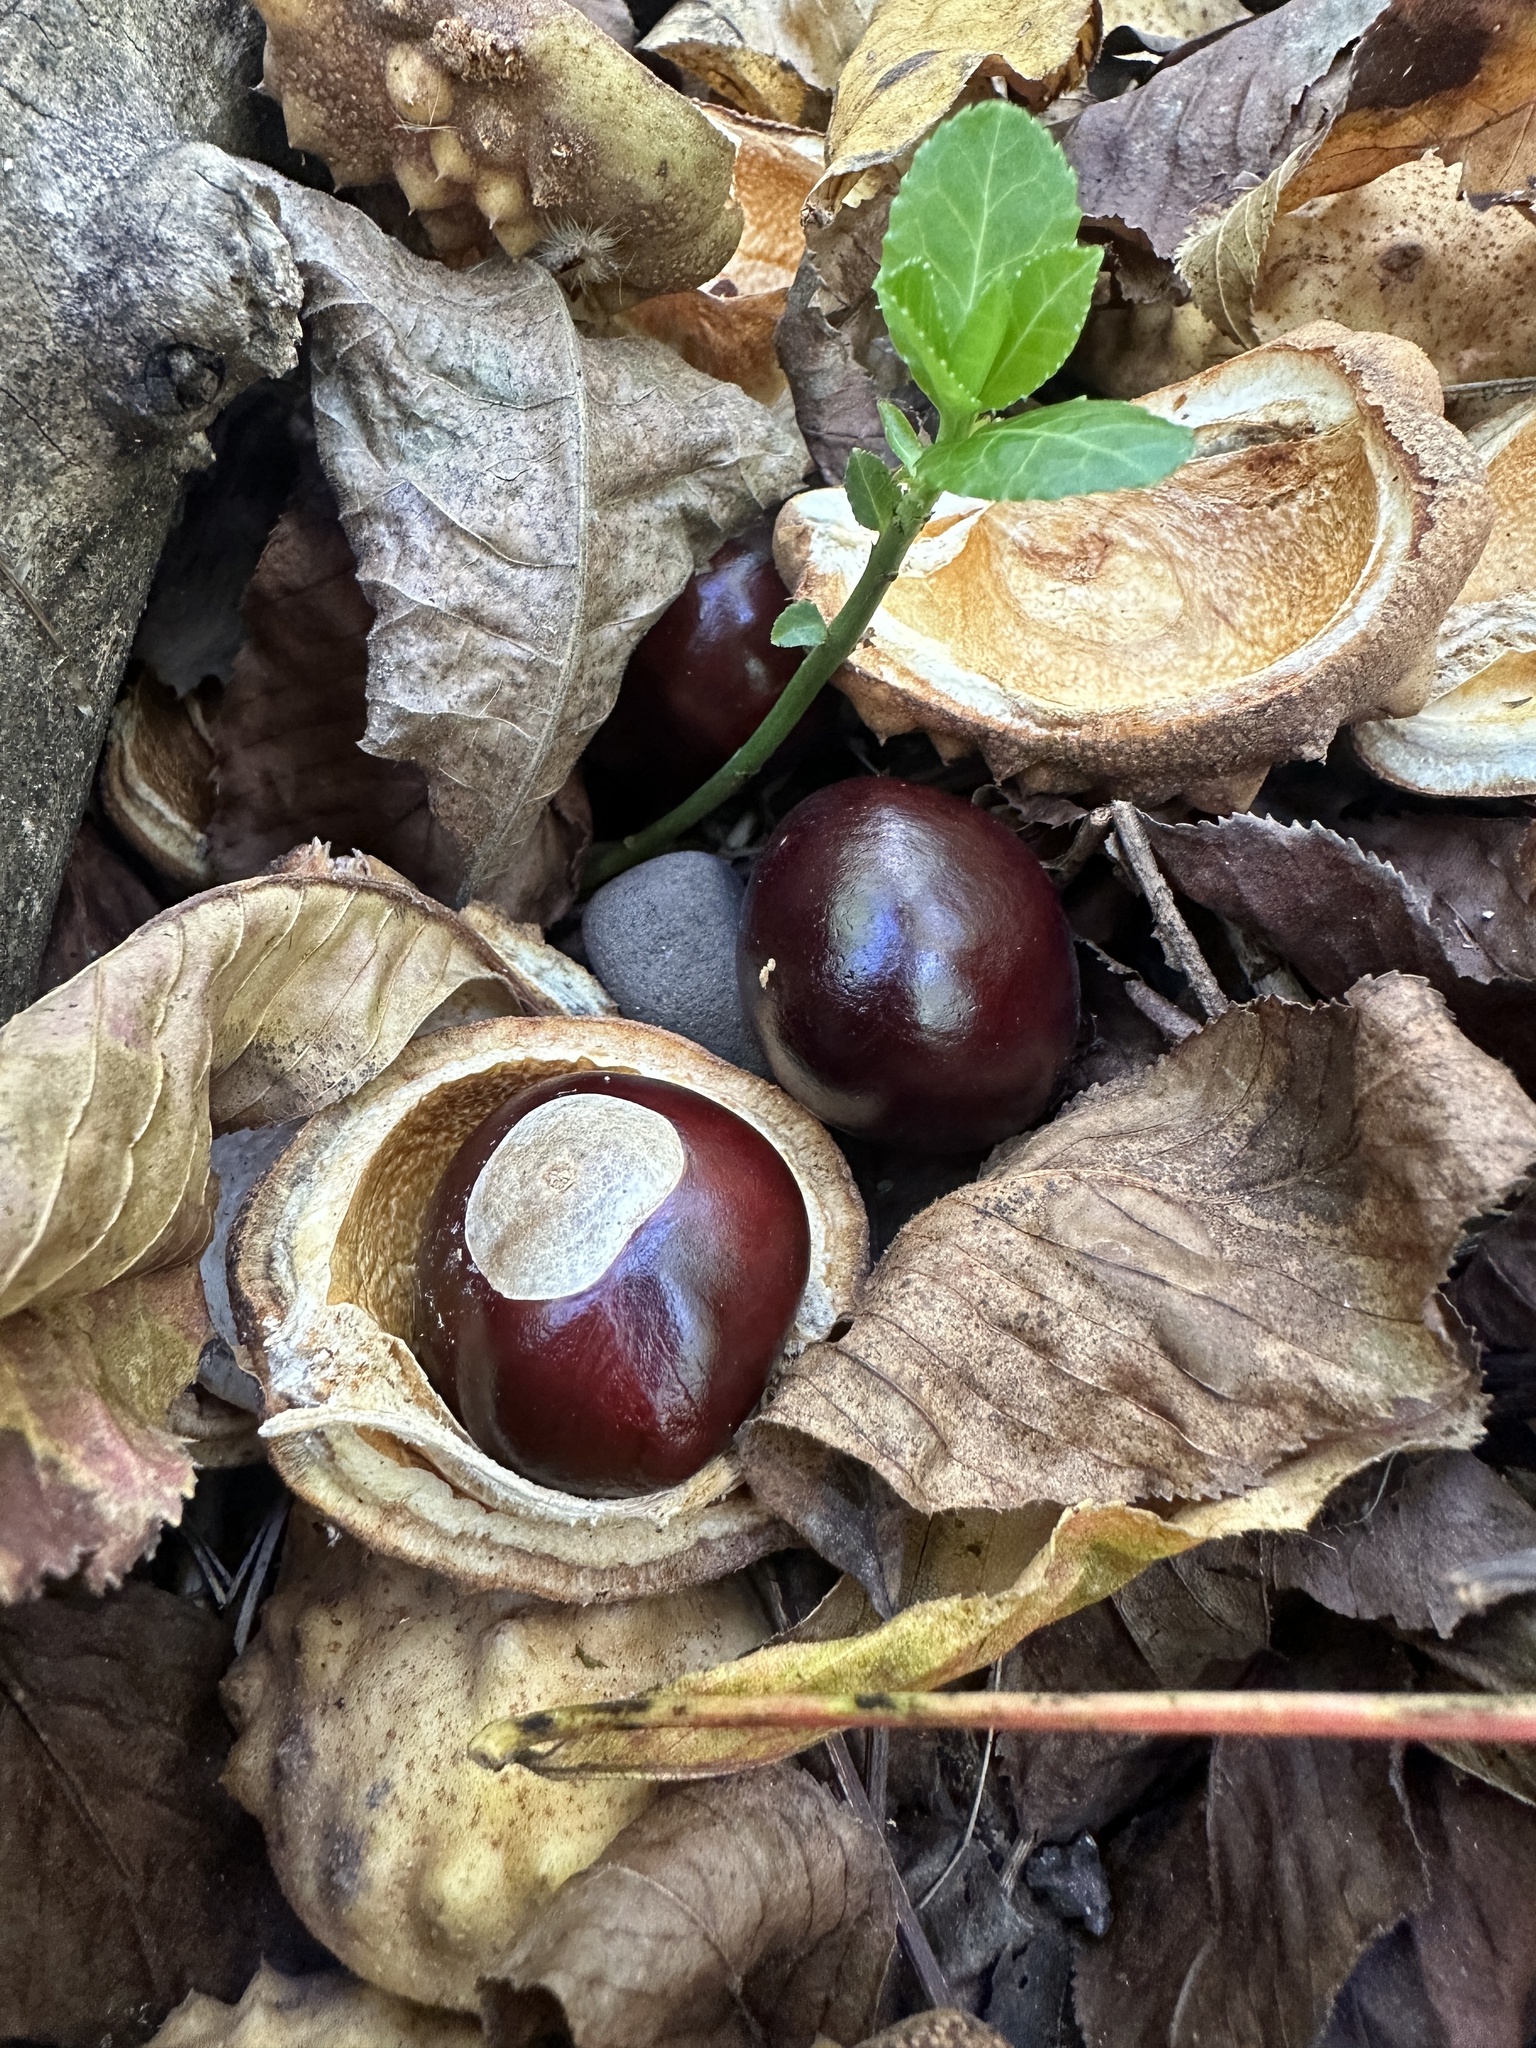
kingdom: Plantae
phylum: Tracheophyta
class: Magnoliopsida
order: Sapindales
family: Sapindaceae
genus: Aesculus
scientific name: Aesculus glabra
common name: Ohio buckeye
